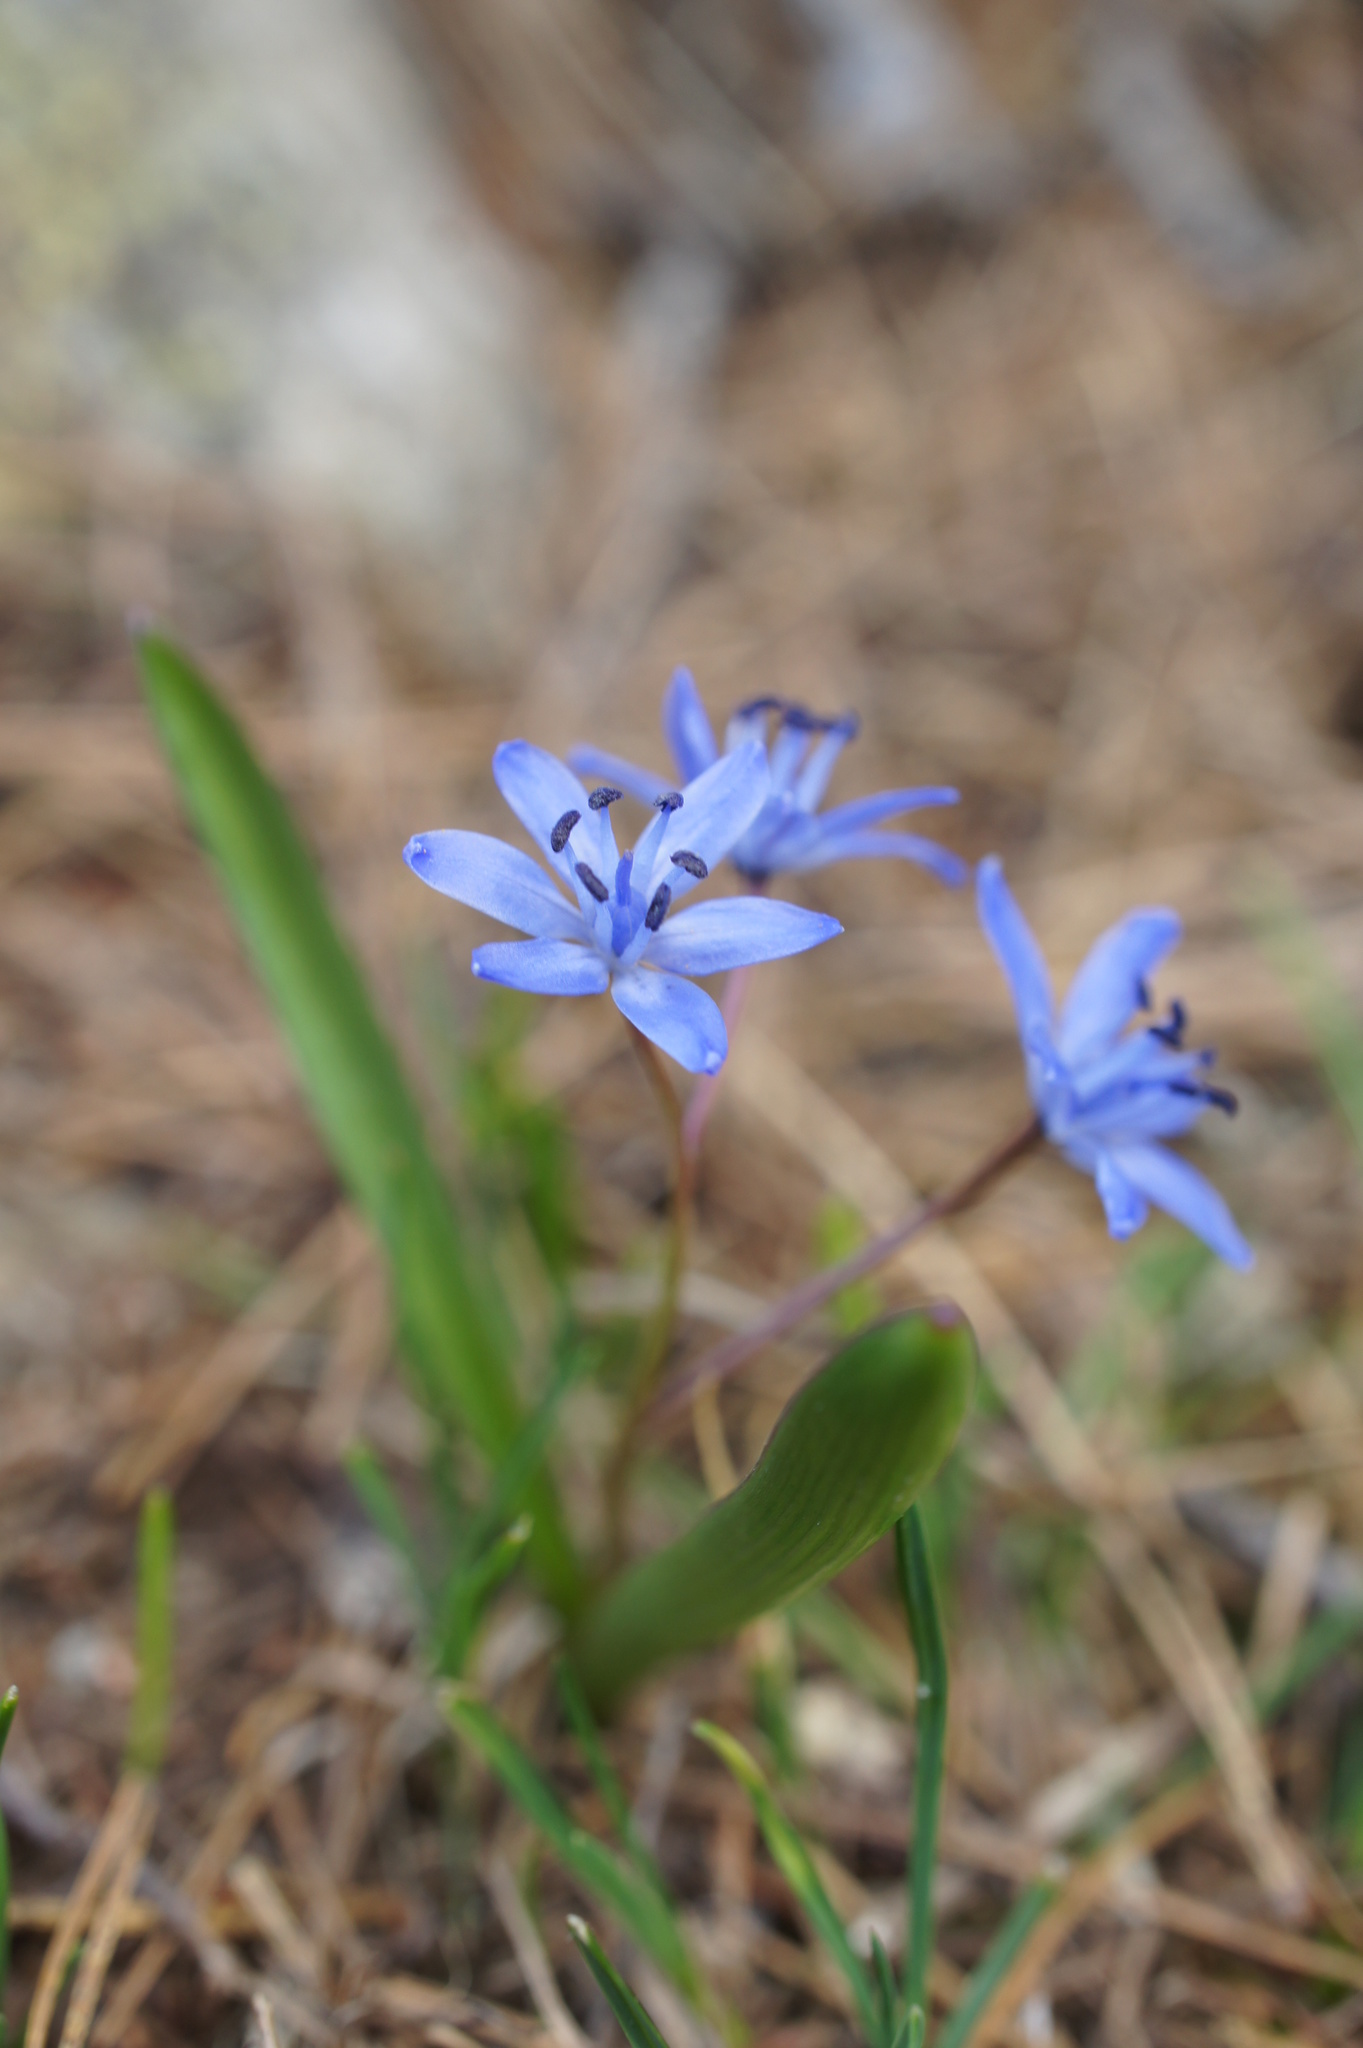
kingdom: Plantae
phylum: Tracheophyta
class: Liliopsida
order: Asparagales
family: Asparagaceae
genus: Scilla
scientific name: Scilla bifolia
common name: Alpine squill
